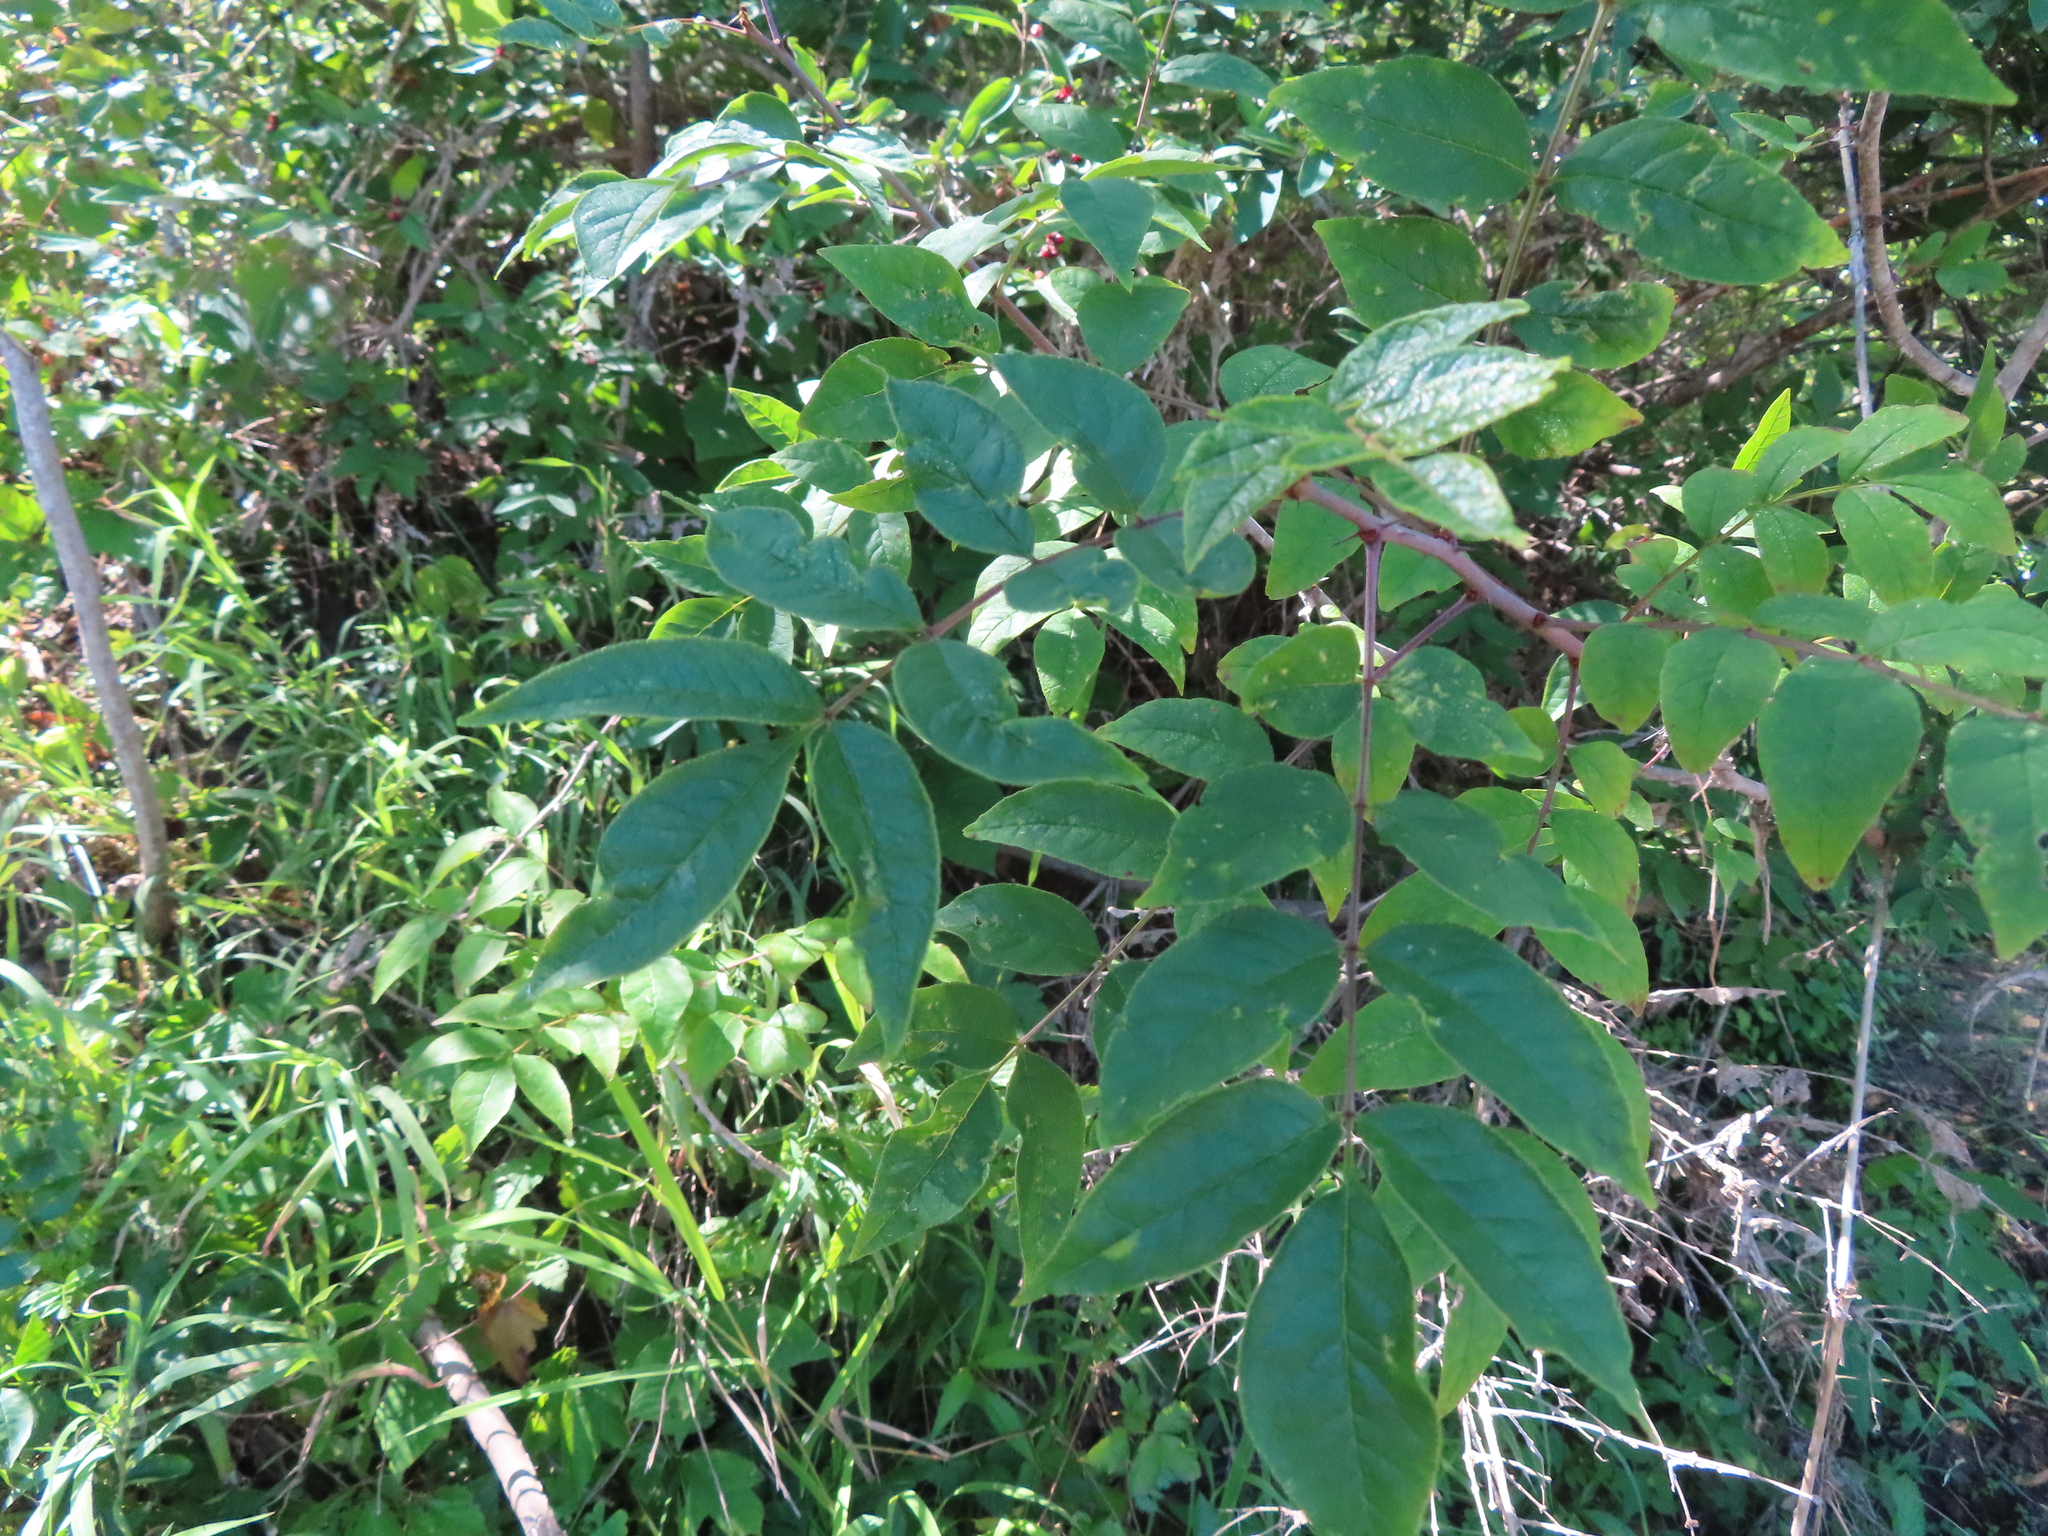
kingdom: Plantae
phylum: Tracheophyta
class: Magnoliopsida
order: Sapindales
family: Rutaceae
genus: Zanthoxylum
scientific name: Zanthoxylum americanum
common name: Northern prickly-ash
